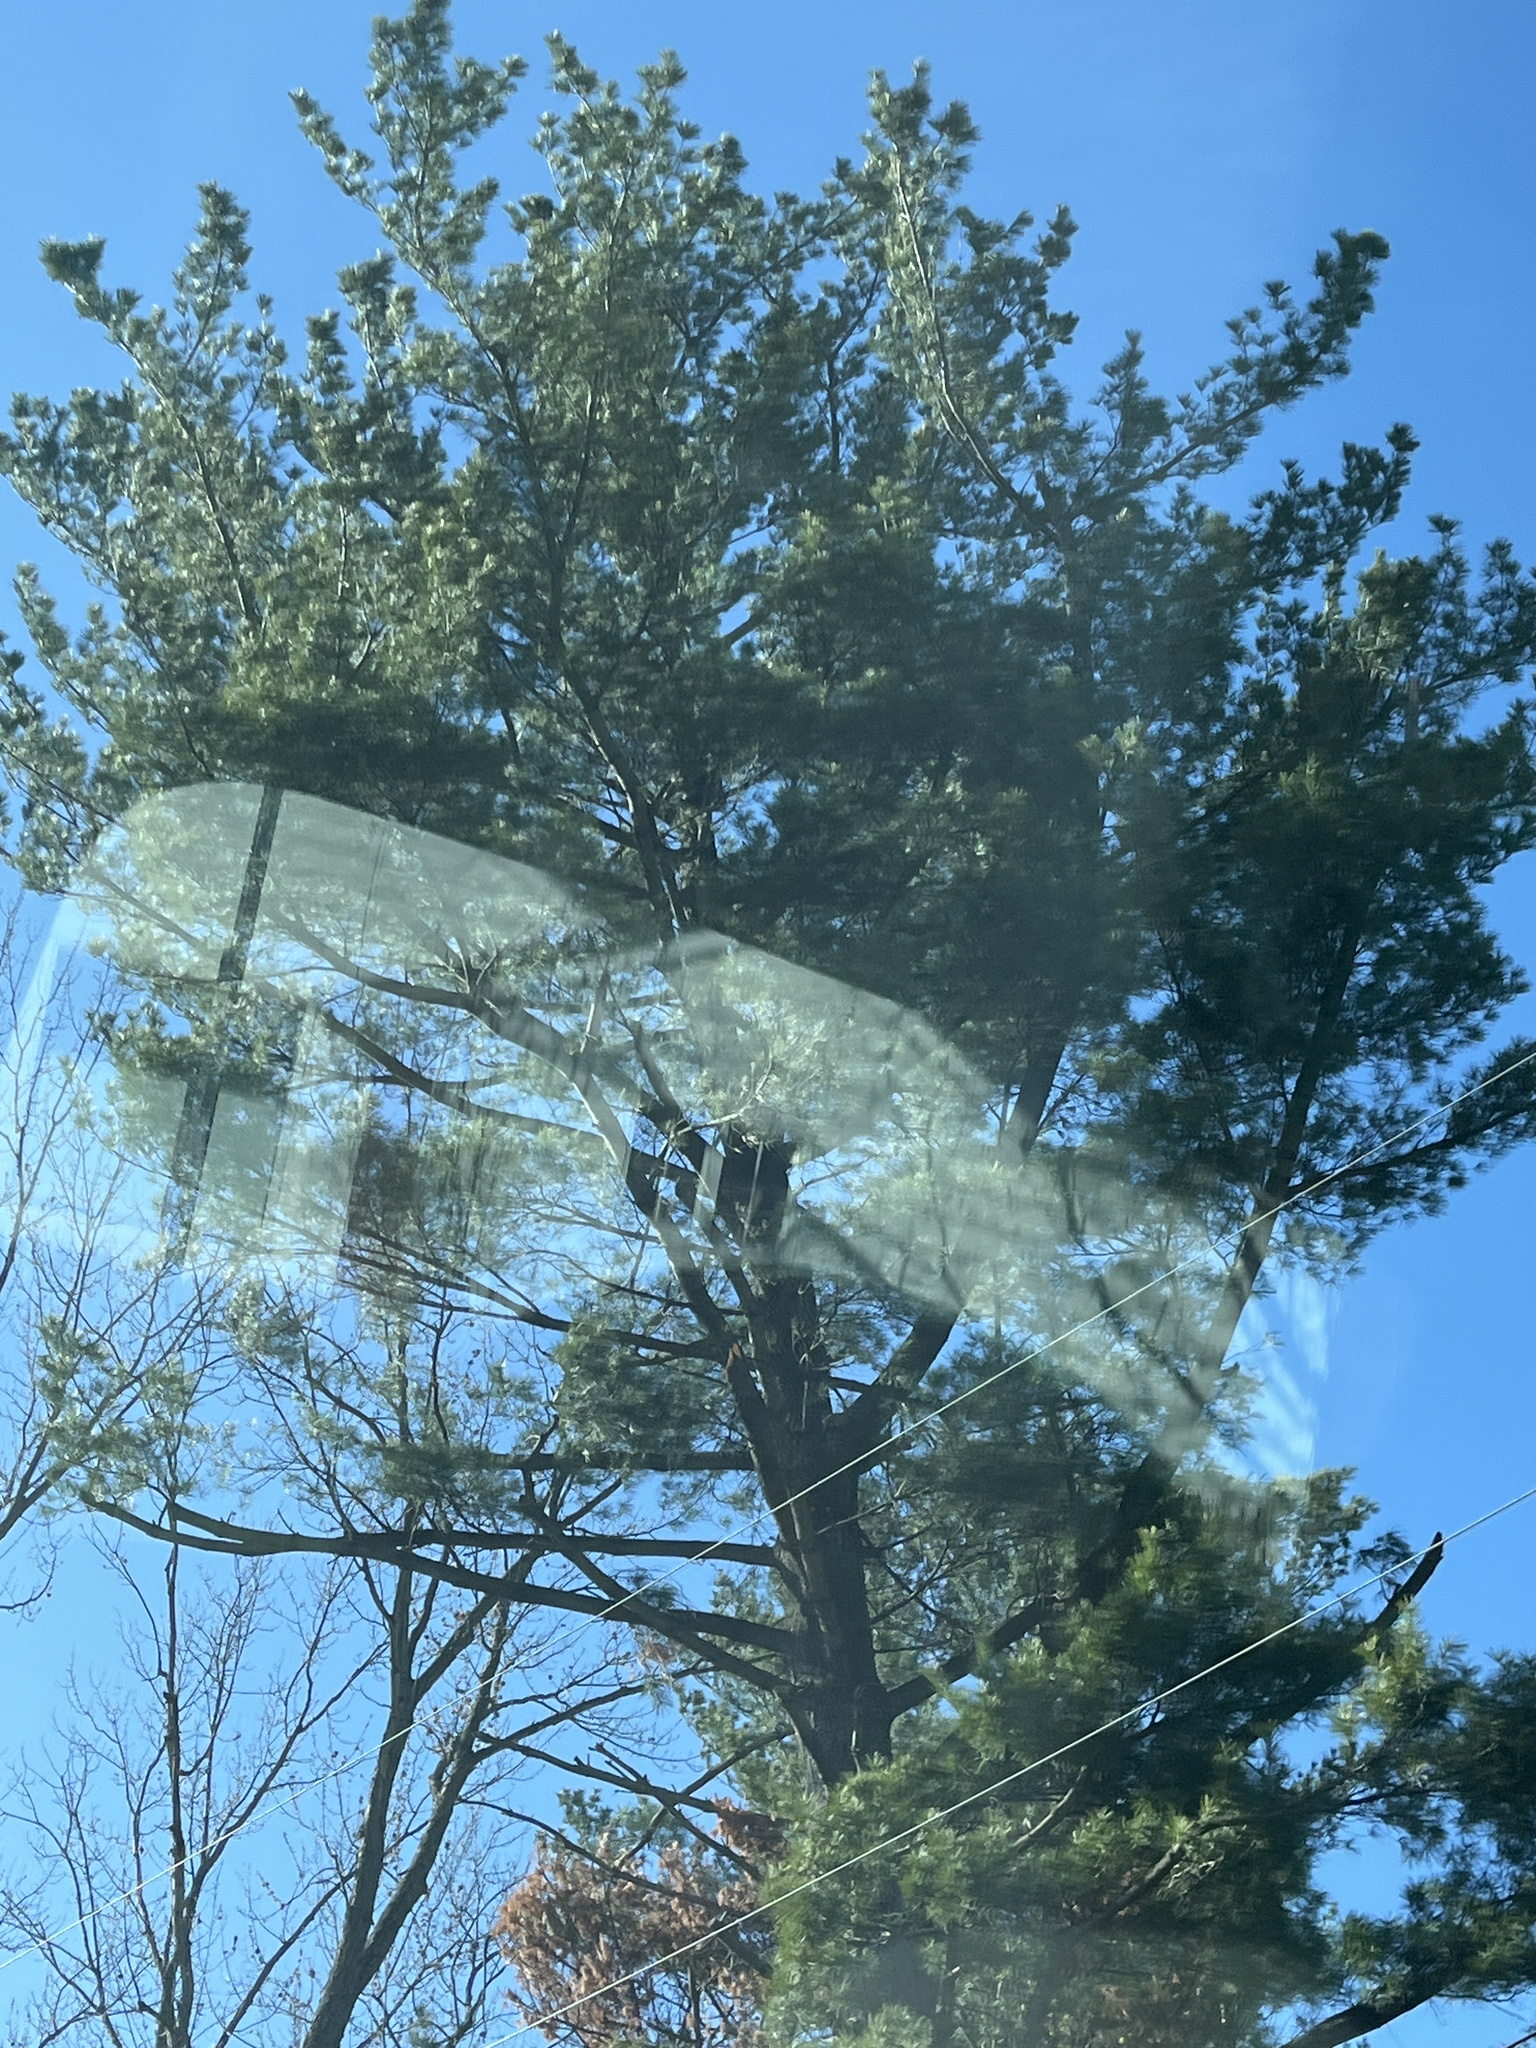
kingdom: Plantae
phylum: Tracheophyta
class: Pinopsida
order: Pinales
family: Pinaceae
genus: Pinus
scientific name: Pinus strobus
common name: Weymouth pine
